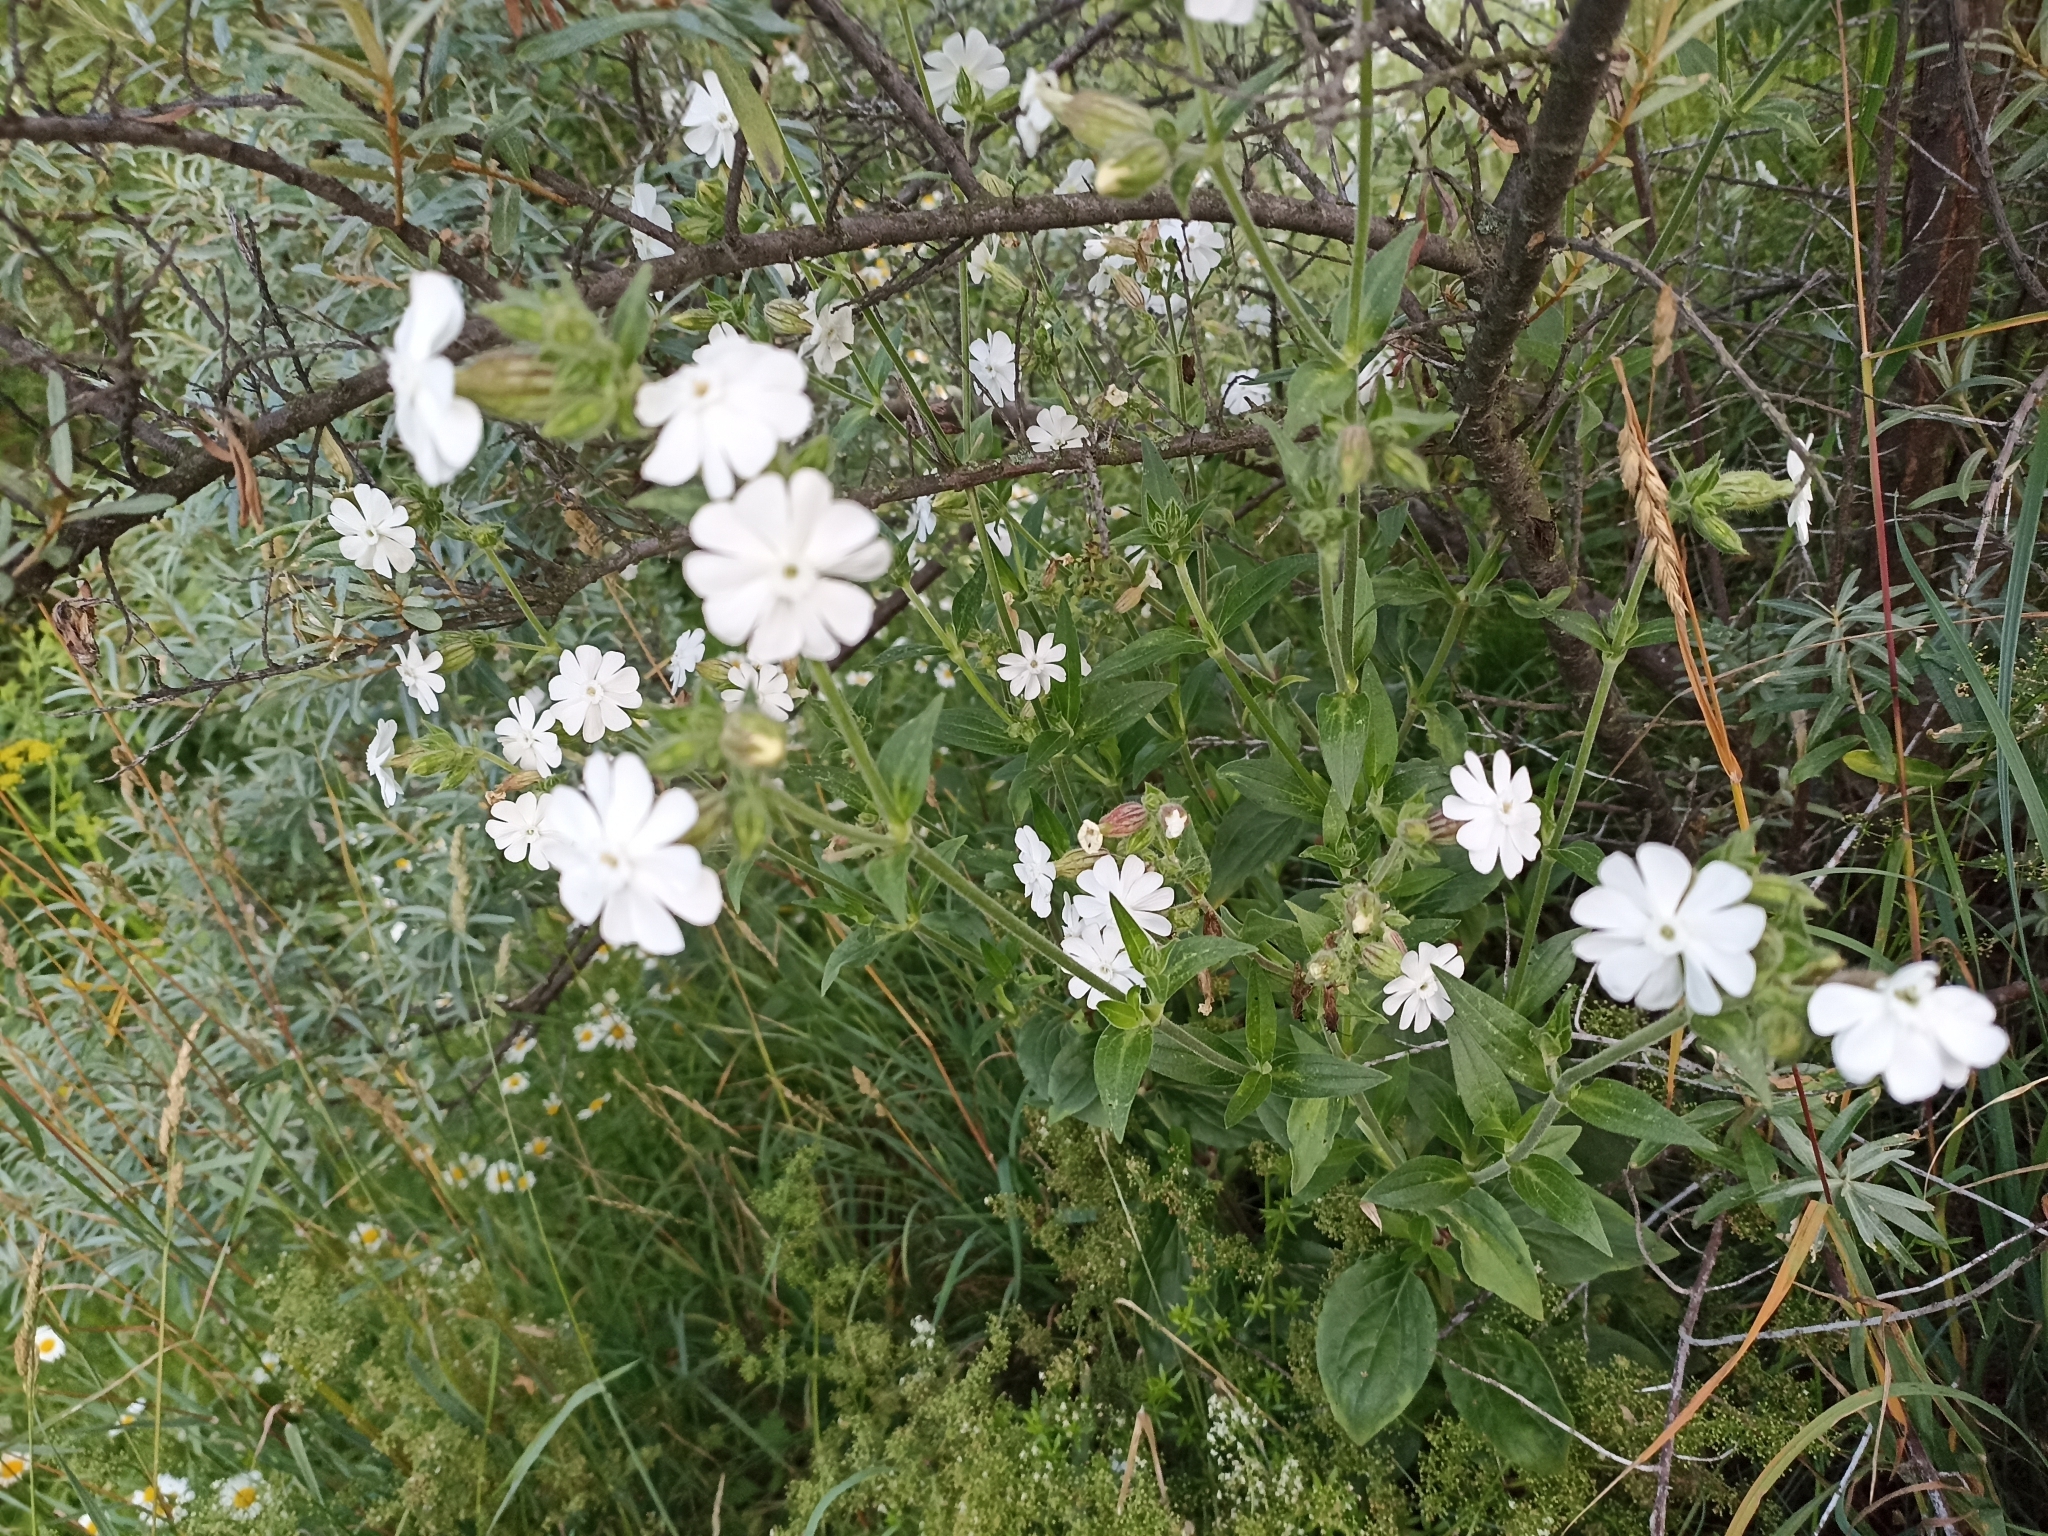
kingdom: Plantae
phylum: Tracheophyta
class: Magnoliopsida
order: Caryophyllales
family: Caryophyllaceae
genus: Silene
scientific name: Silene latifolia
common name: White campion
